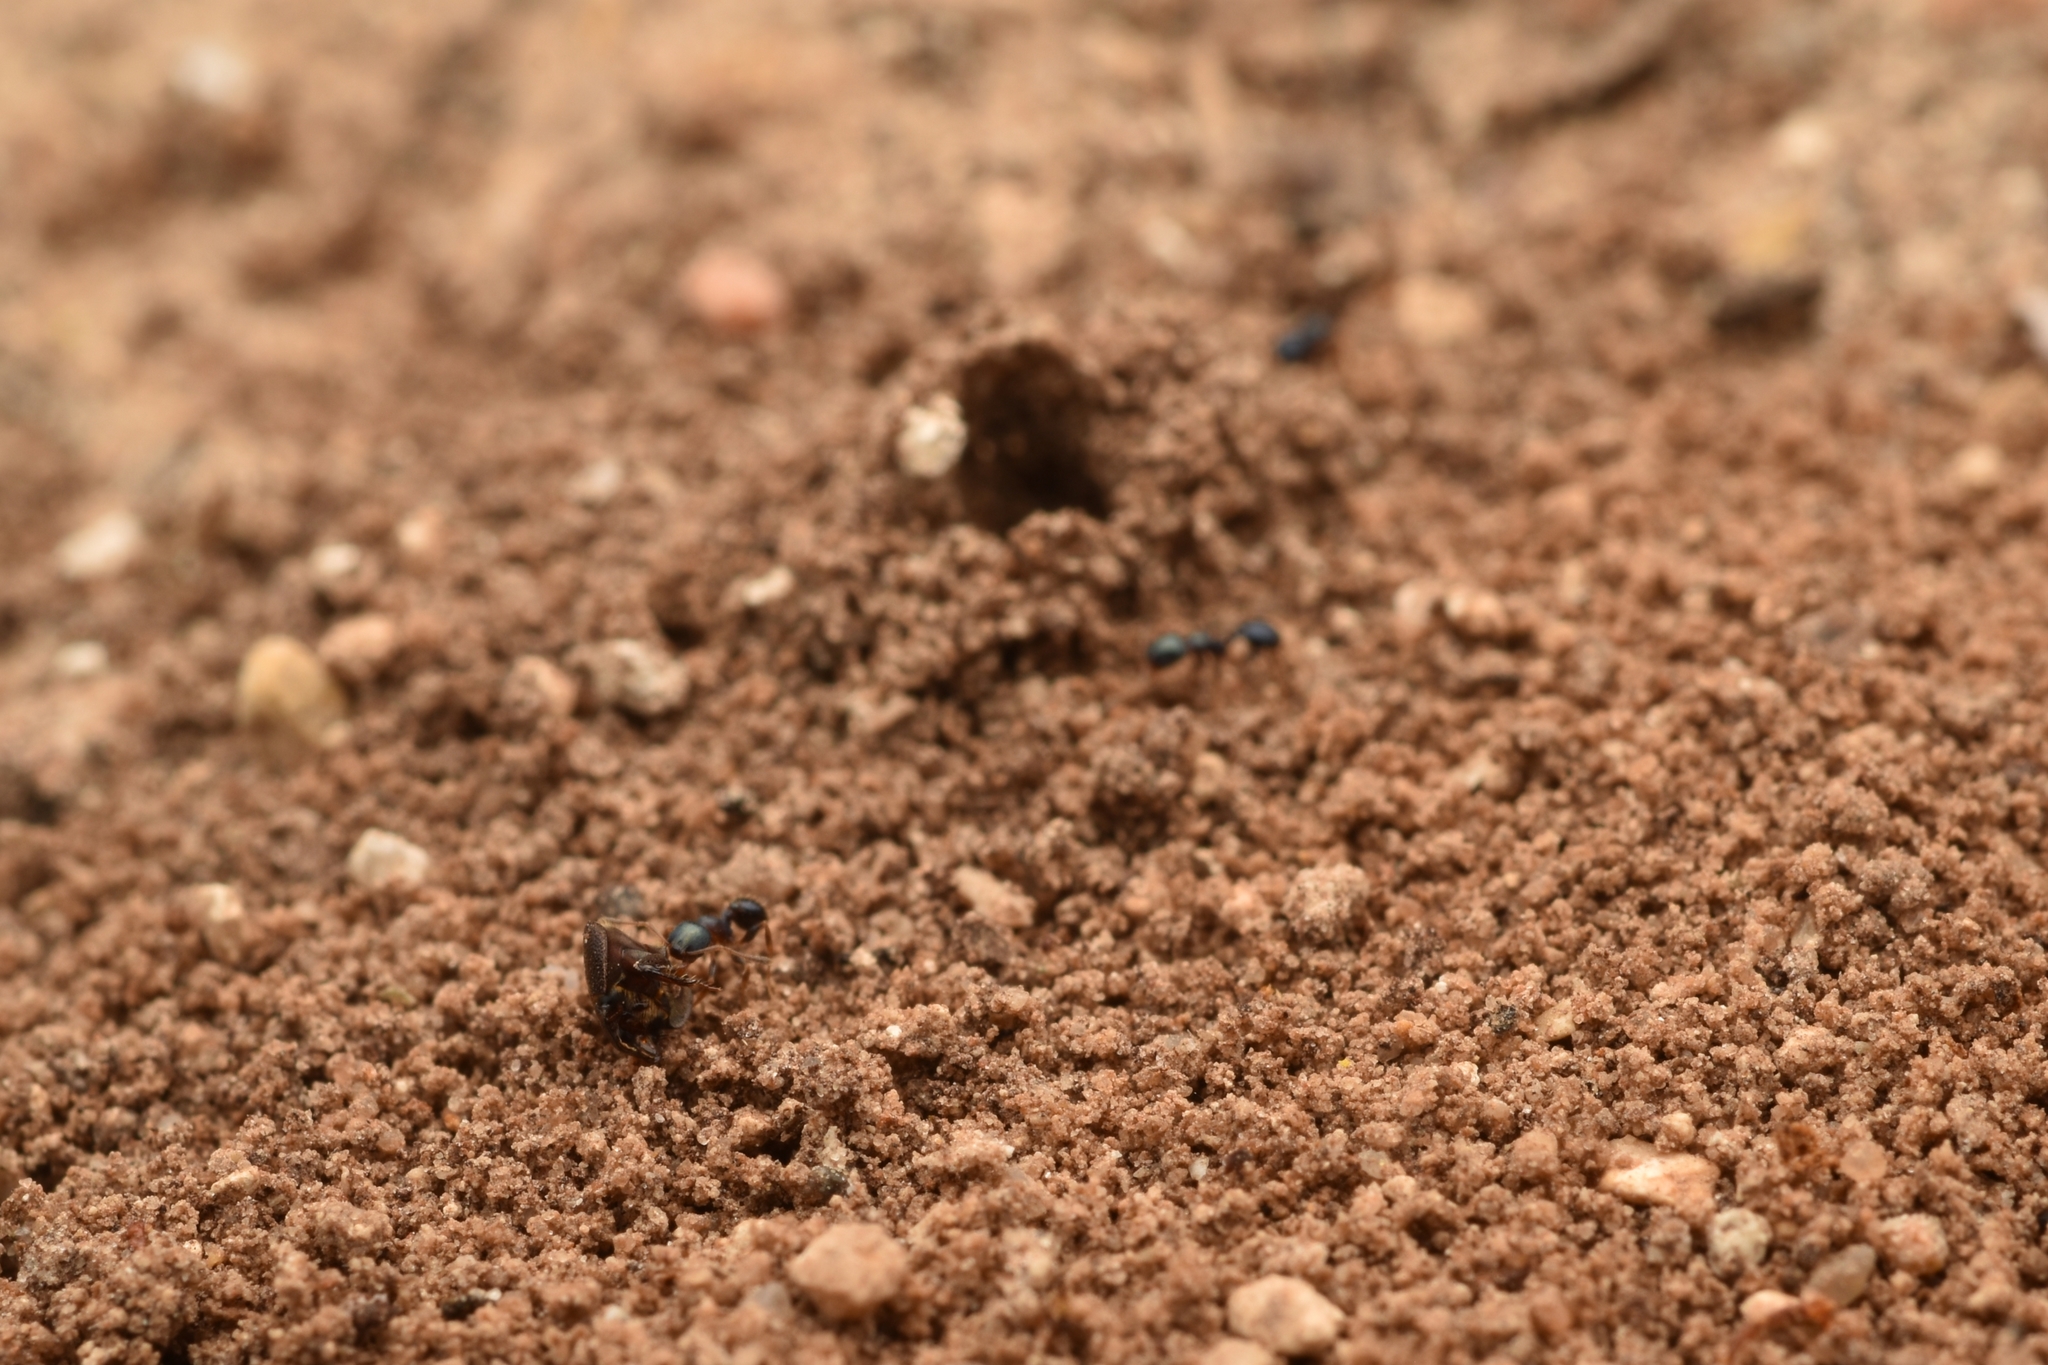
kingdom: Animalia
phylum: Arthropoda
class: Insecta
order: Hymenoptera
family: Formicidae
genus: Pheidole
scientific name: Pheidole metallescens
